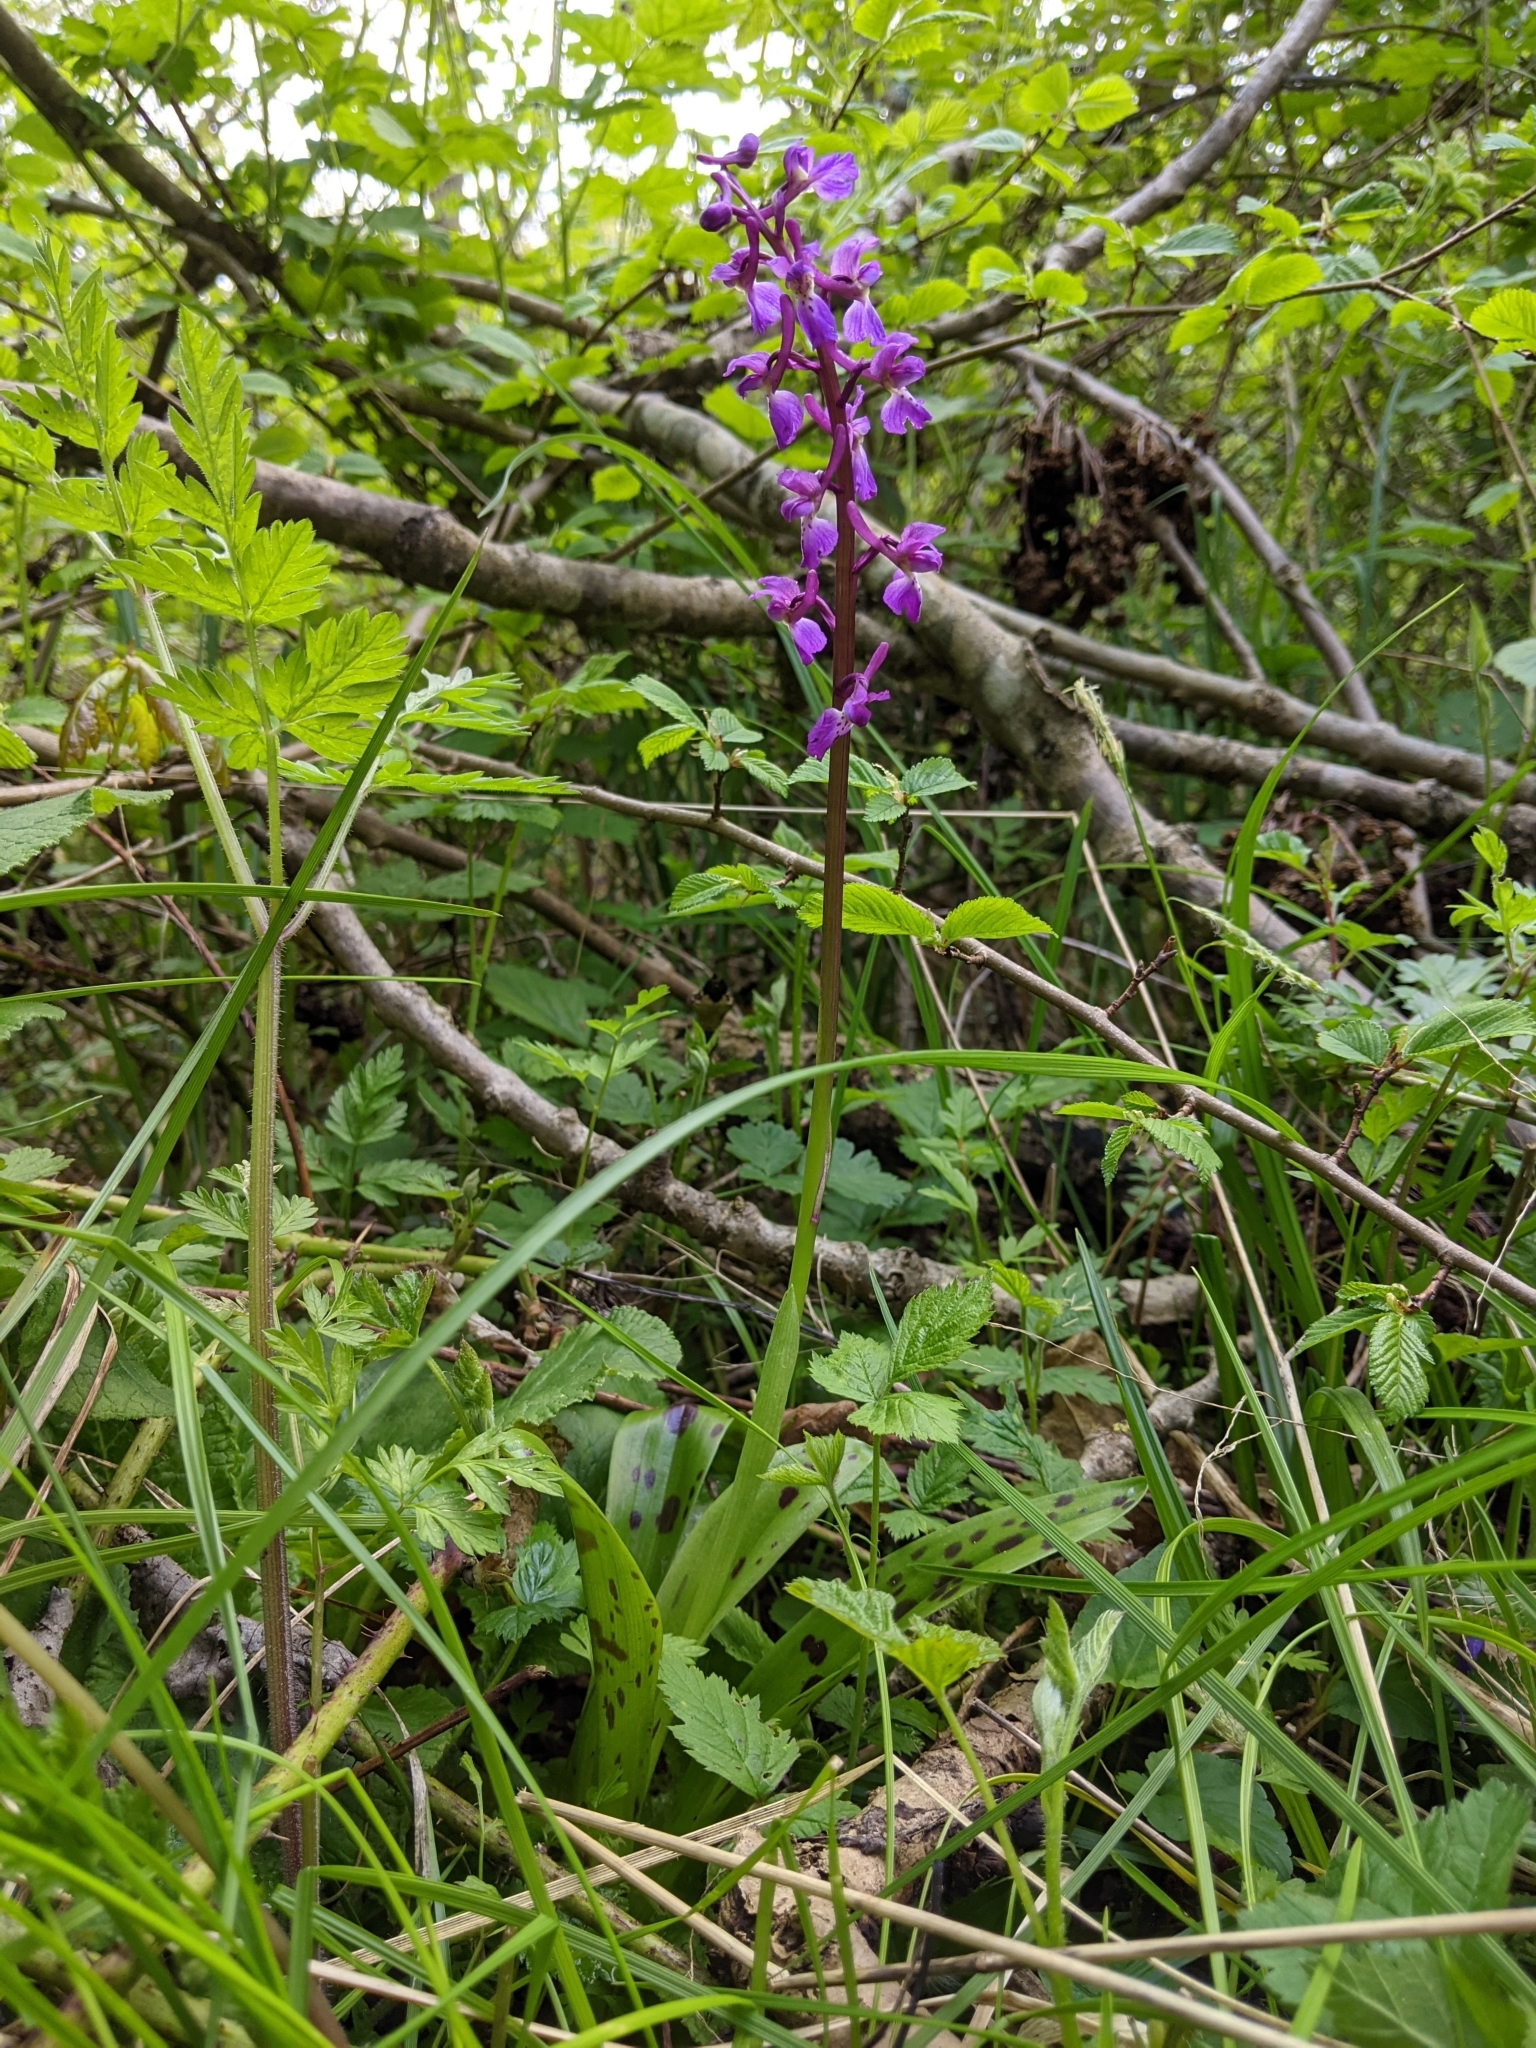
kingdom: Plantae
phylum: Tracheophyta
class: Liliopsida
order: Asparagales
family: Orchidaceae
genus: Orchis
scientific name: Orchis mascula
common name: Early-purple orchid
